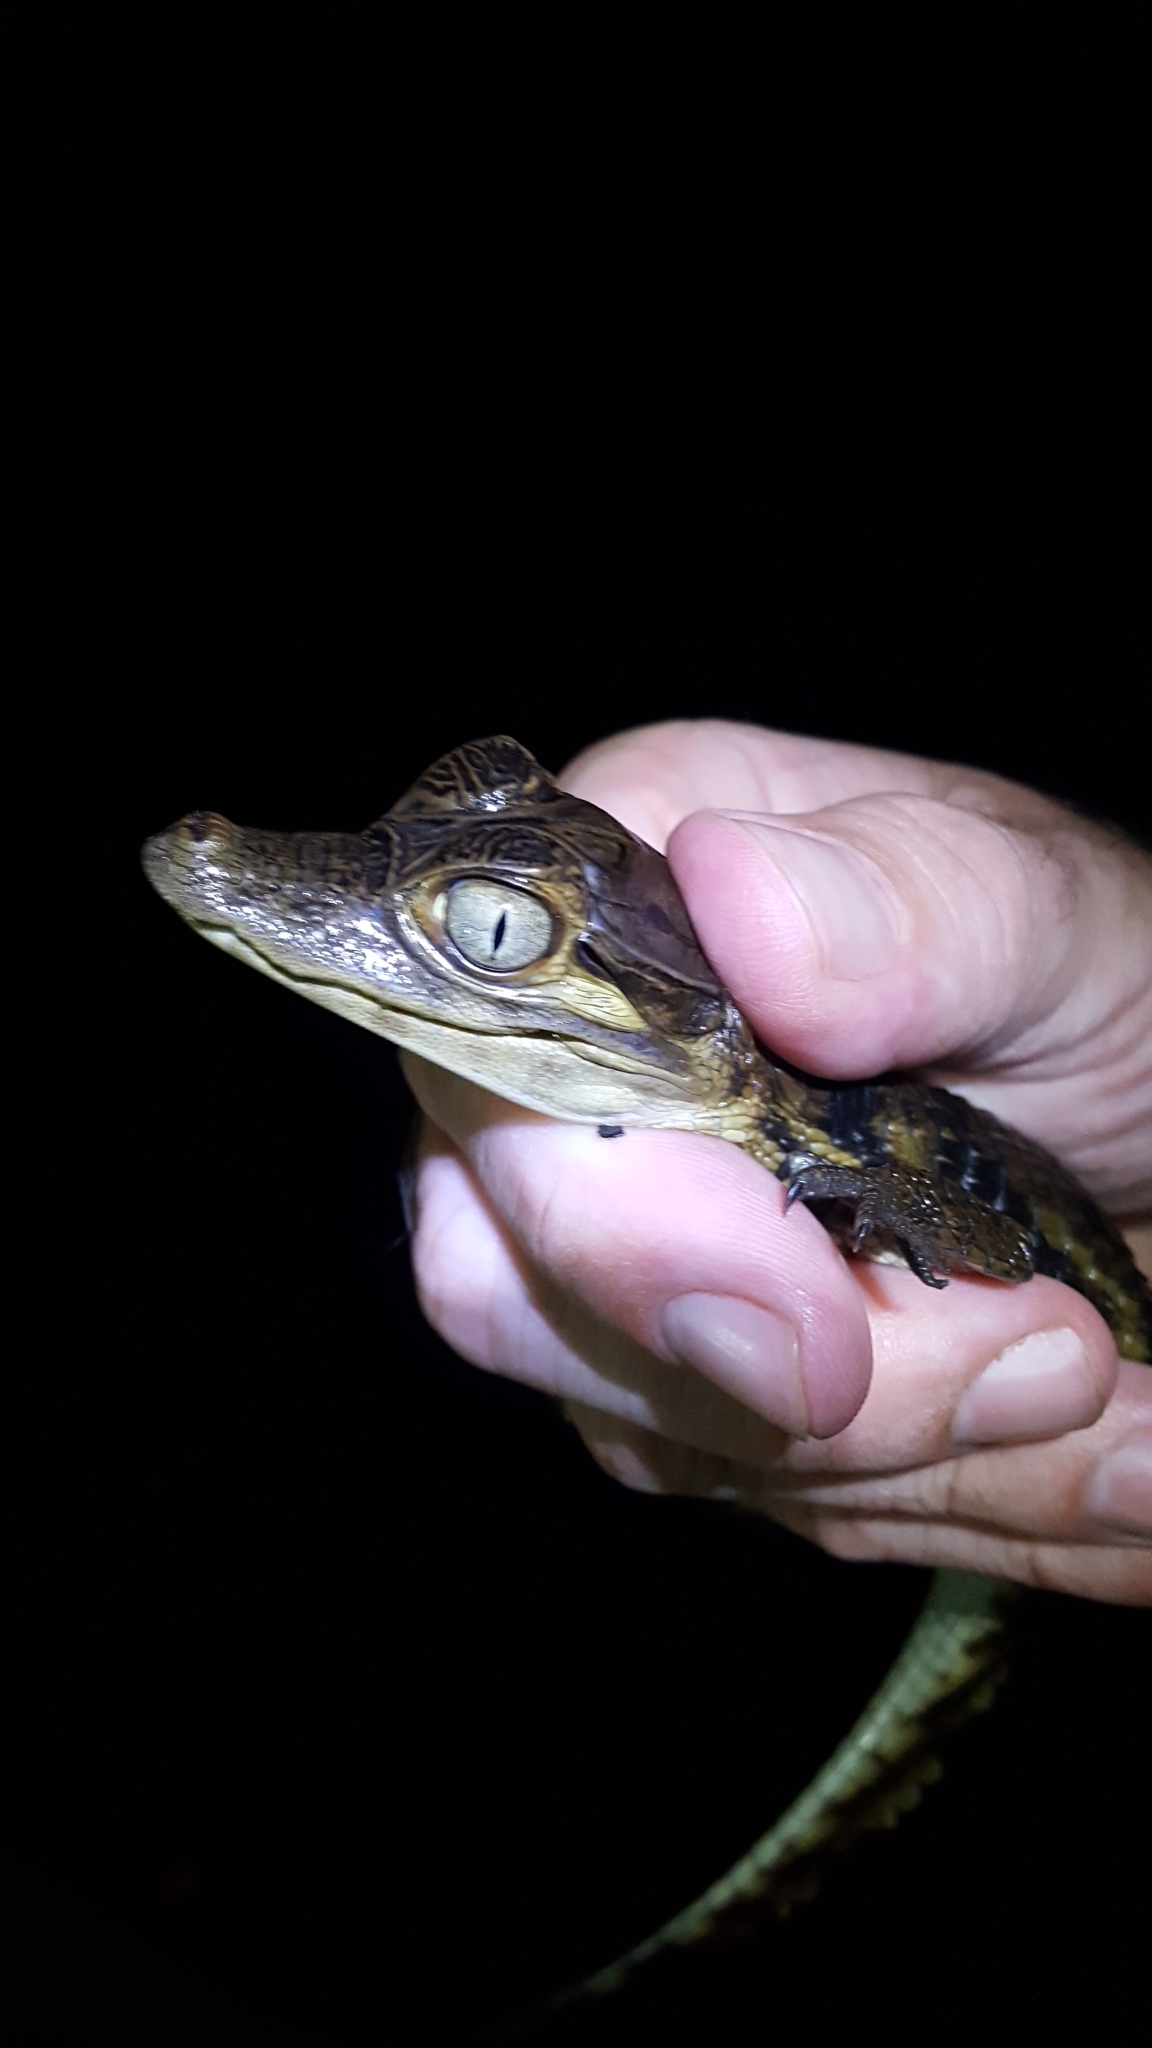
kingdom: Animalia
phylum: Chordata
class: Crocodylia
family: Alligatoridae
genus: Caiman
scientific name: Caiman crocodilus
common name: Common caiman
